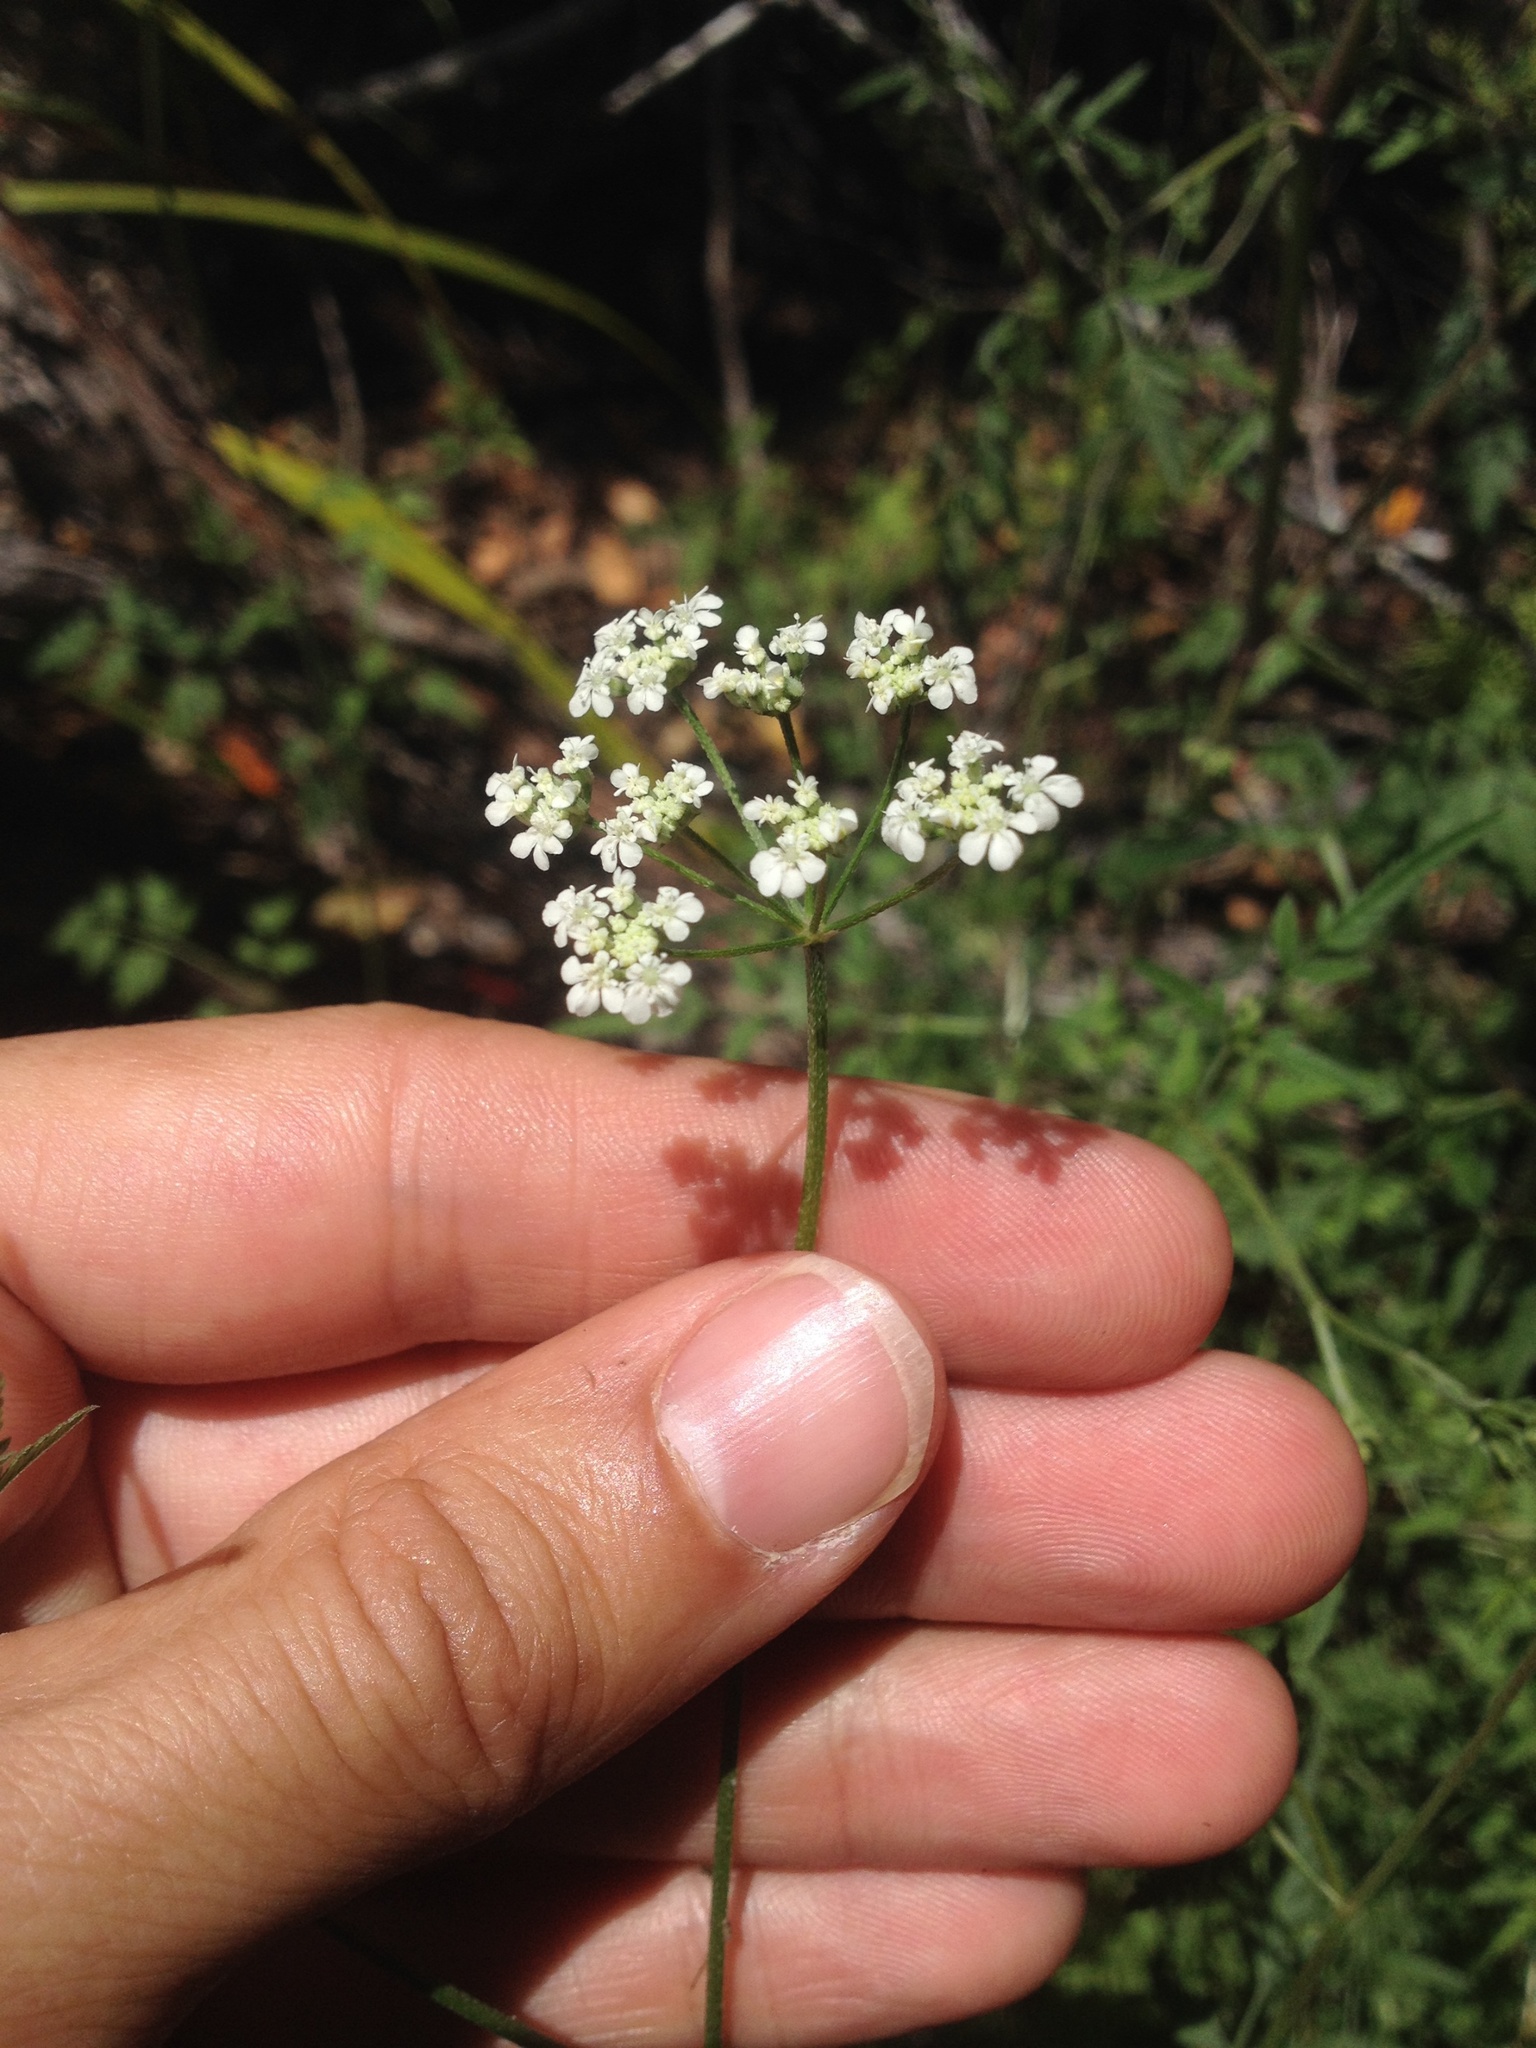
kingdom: Plantae
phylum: Tracheophyta
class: Magnoliopsida
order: Apiales
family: Apiaceae
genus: Torilis
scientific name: Torilis arvensis
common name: Spreading hedge-parsley
